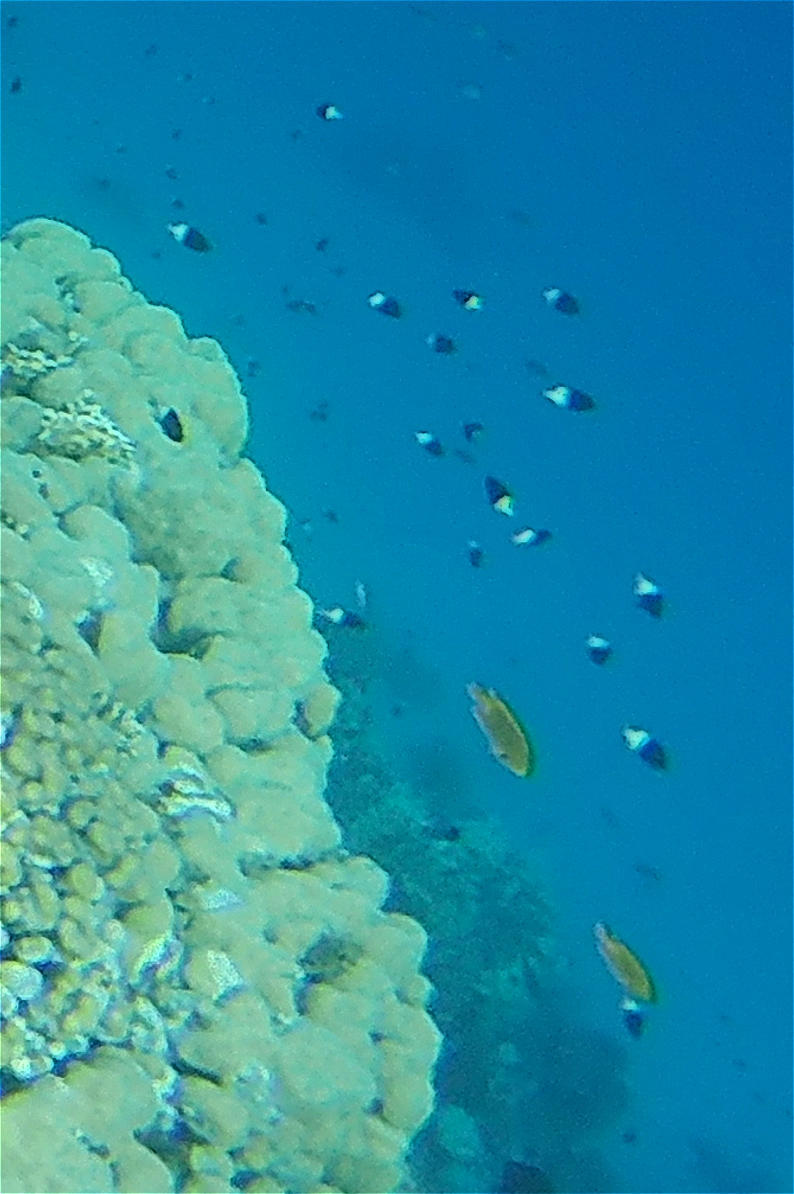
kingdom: Animalia
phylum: Chordata
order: Perciformes
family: Pomacentridae
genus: Chromis
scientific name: Chromis dimidiata
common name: Half-and-half chromis
